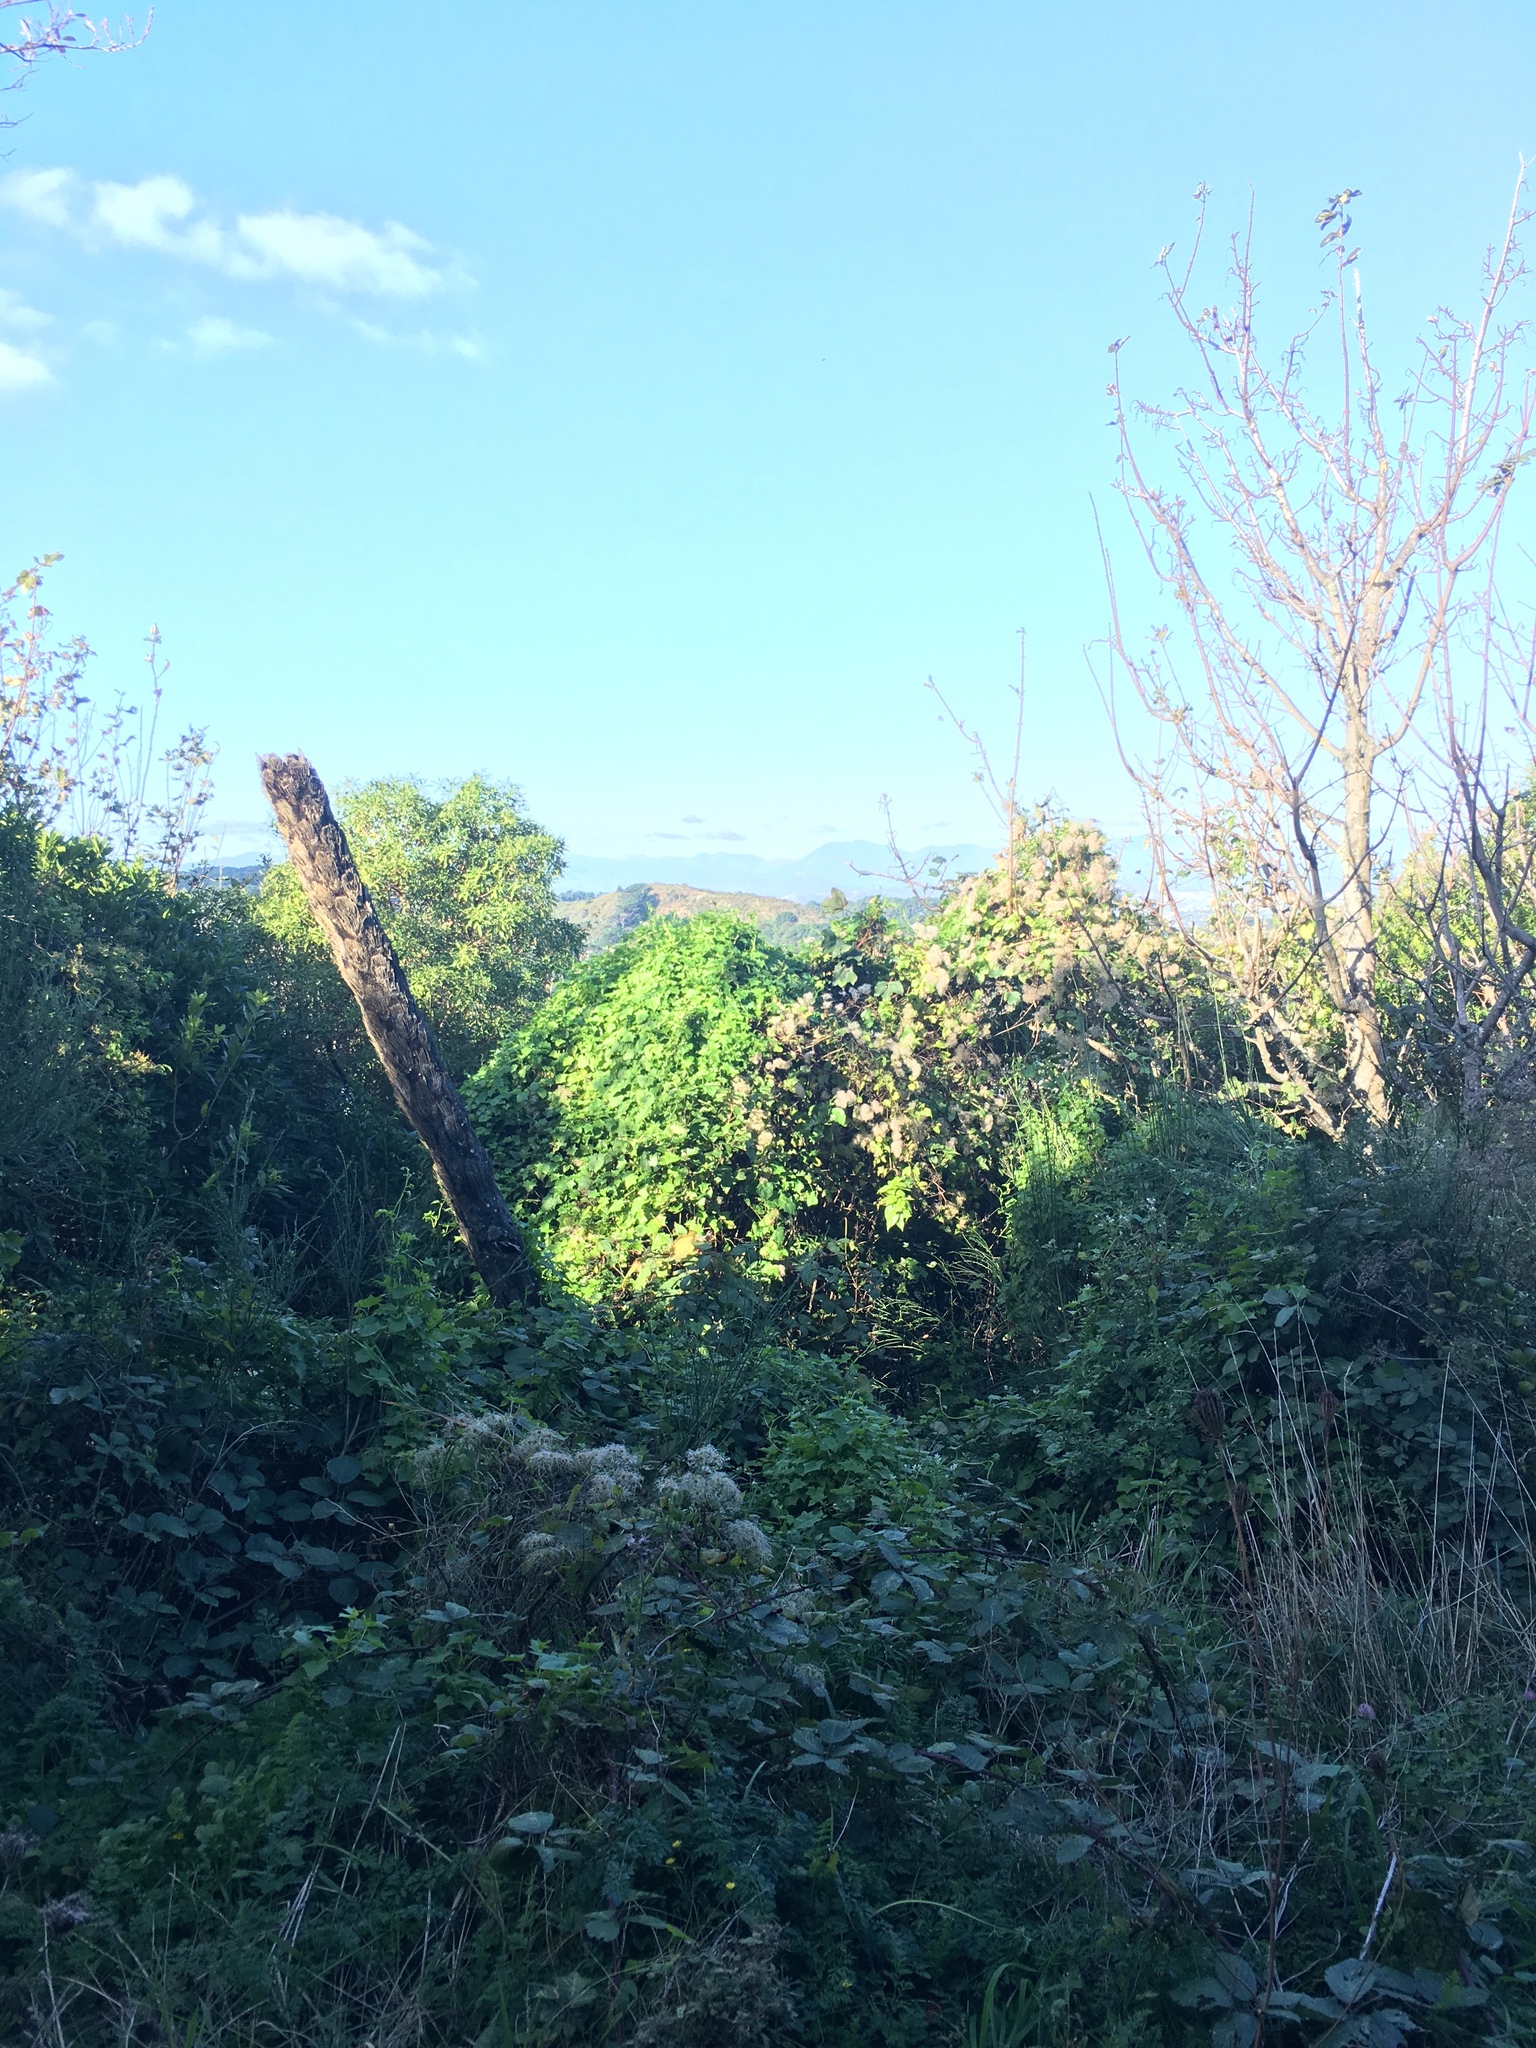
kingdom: Plantae
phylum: Tracheophyta
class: Magnoliopsida
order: Ranunculales
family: Ranunculaceae
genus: Clematis
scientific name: Clematis vitalba
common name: Evergreen clematis
